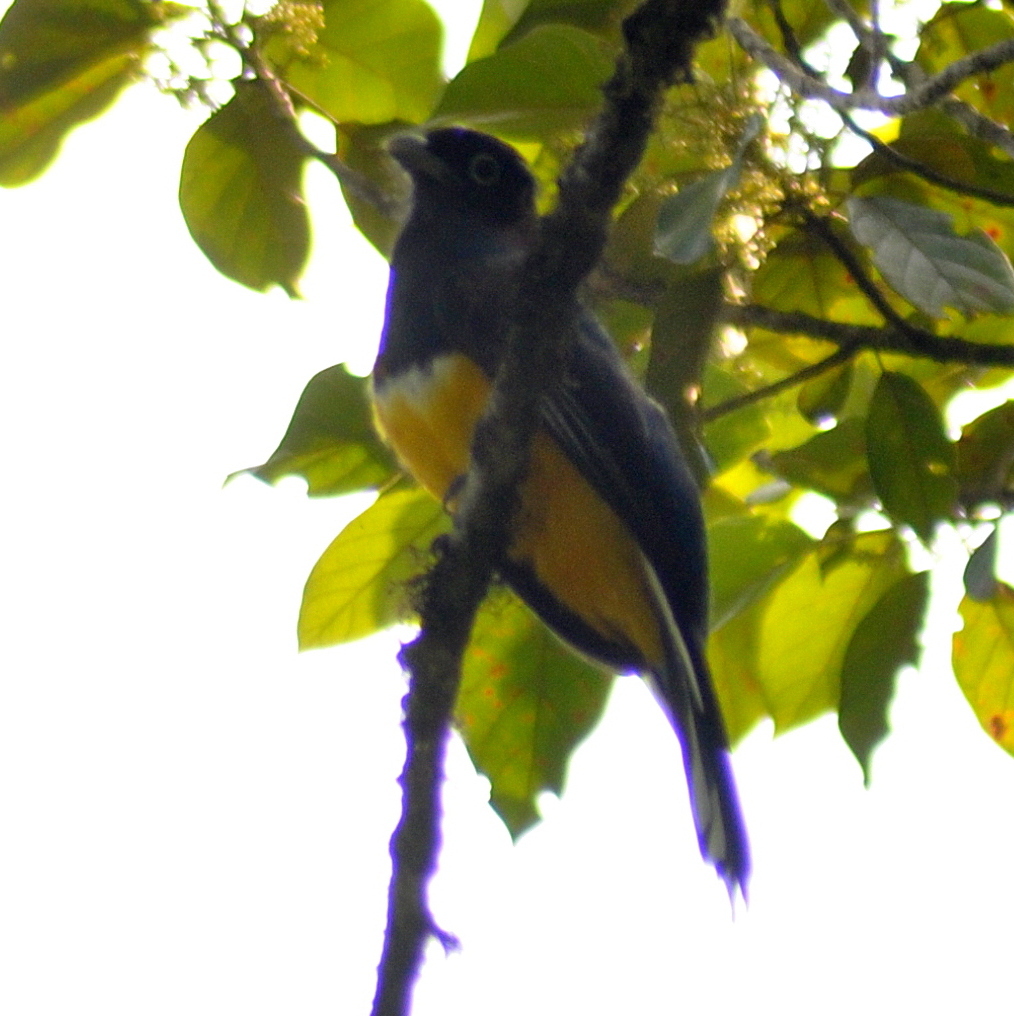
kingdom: Animalia
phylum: Chordata
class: Aves
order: Trogoniformes
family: Trogonidae
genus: Trogon
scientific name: Trogon viridis
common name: Green-backed trogon
